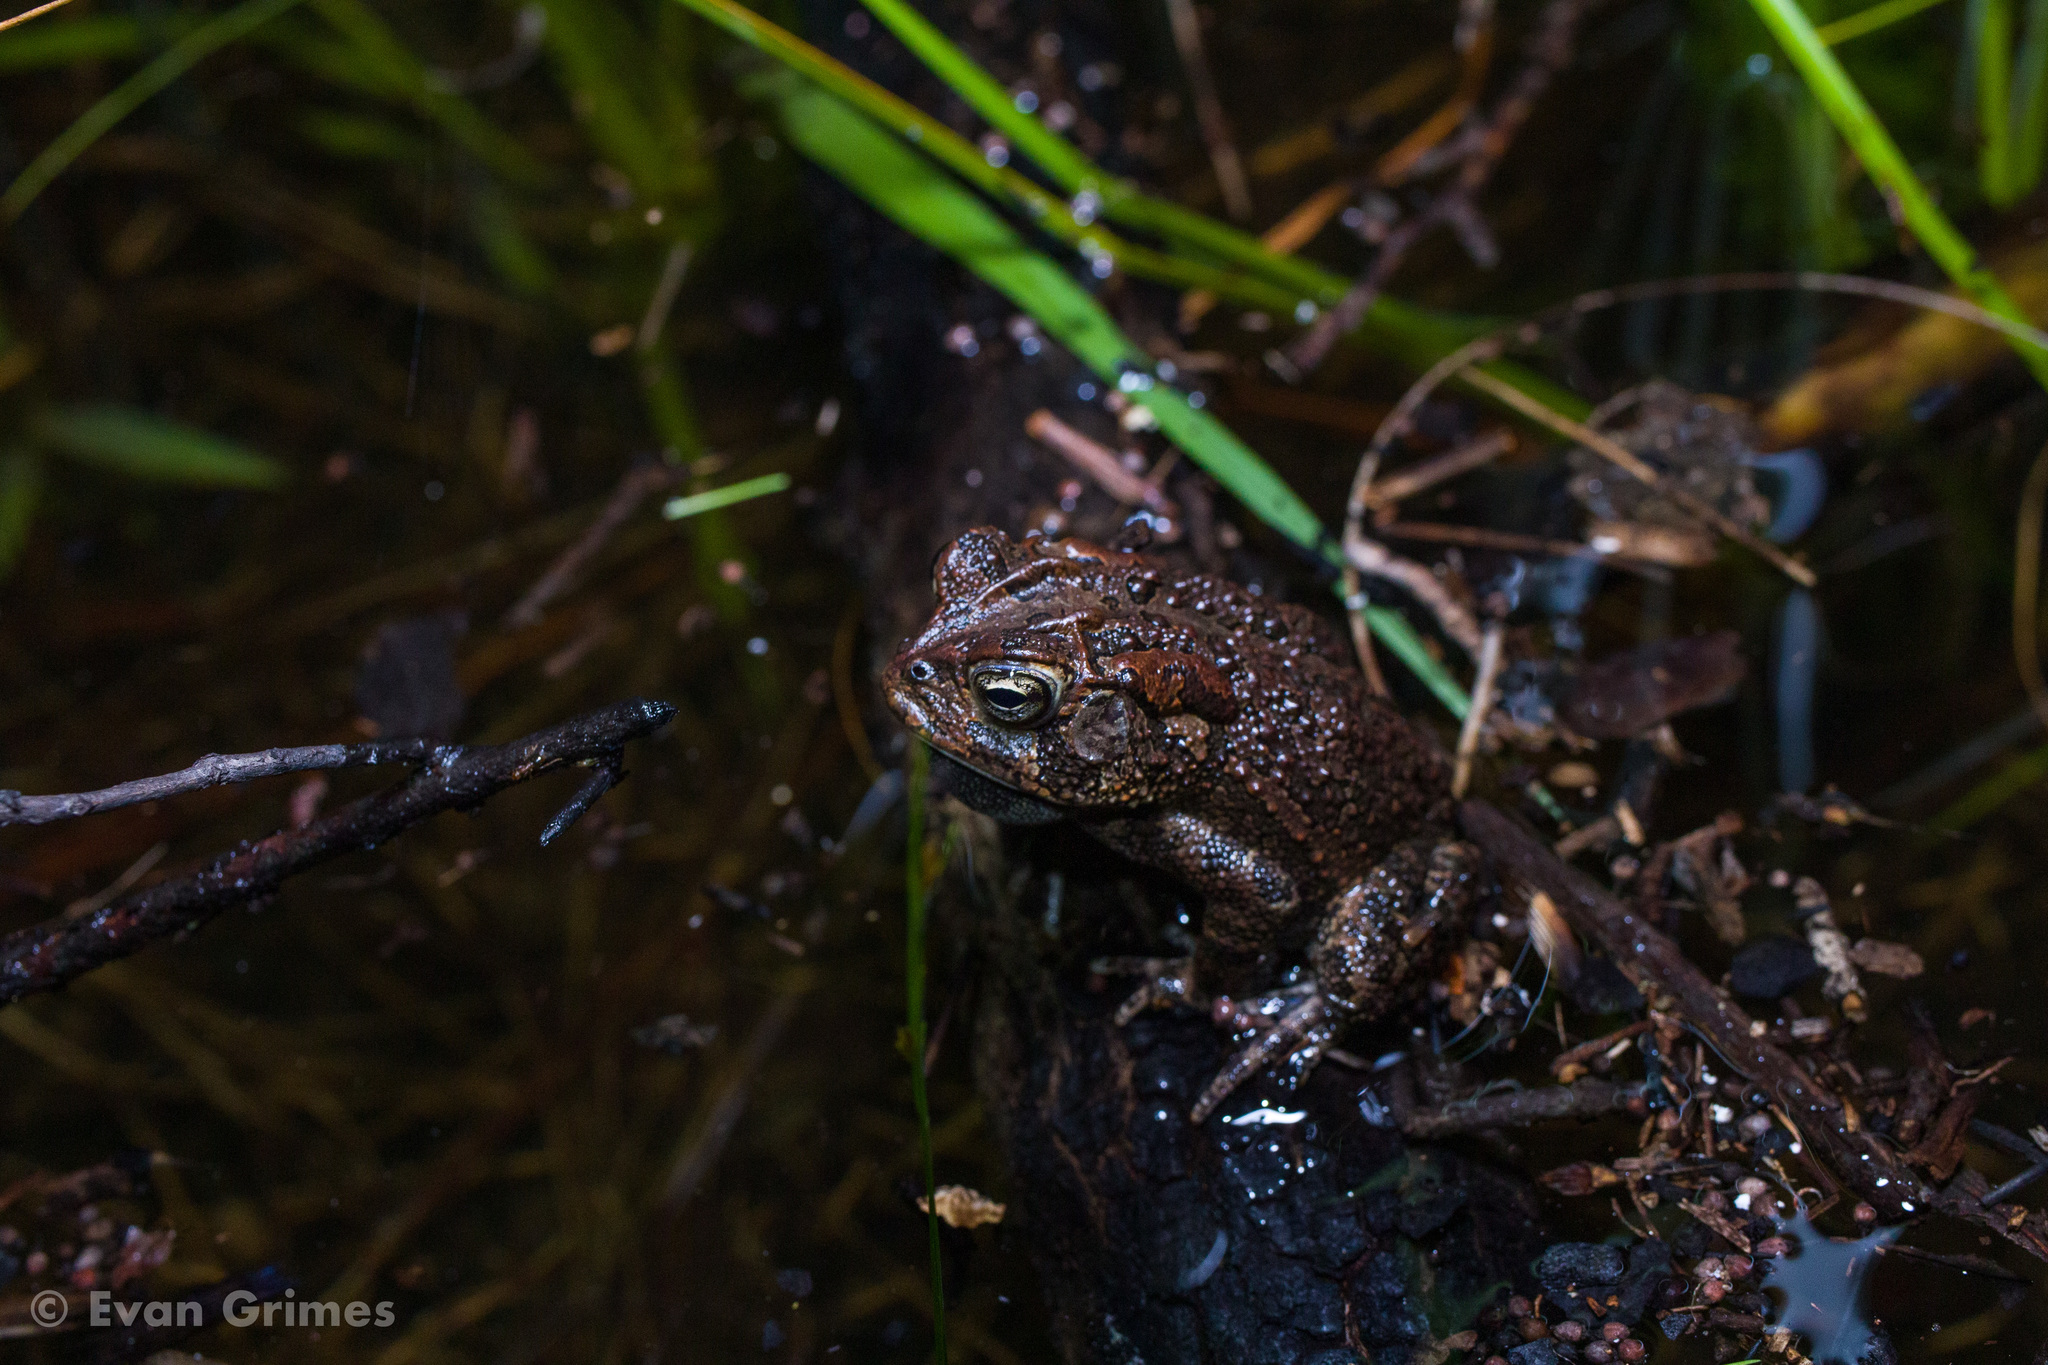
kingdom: Animalia
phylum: Chordata
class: Amphibia
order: Anura
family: Bufonidae
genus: Anaxyrus
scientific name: Anaxyrus terrestris
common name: Southern toad
